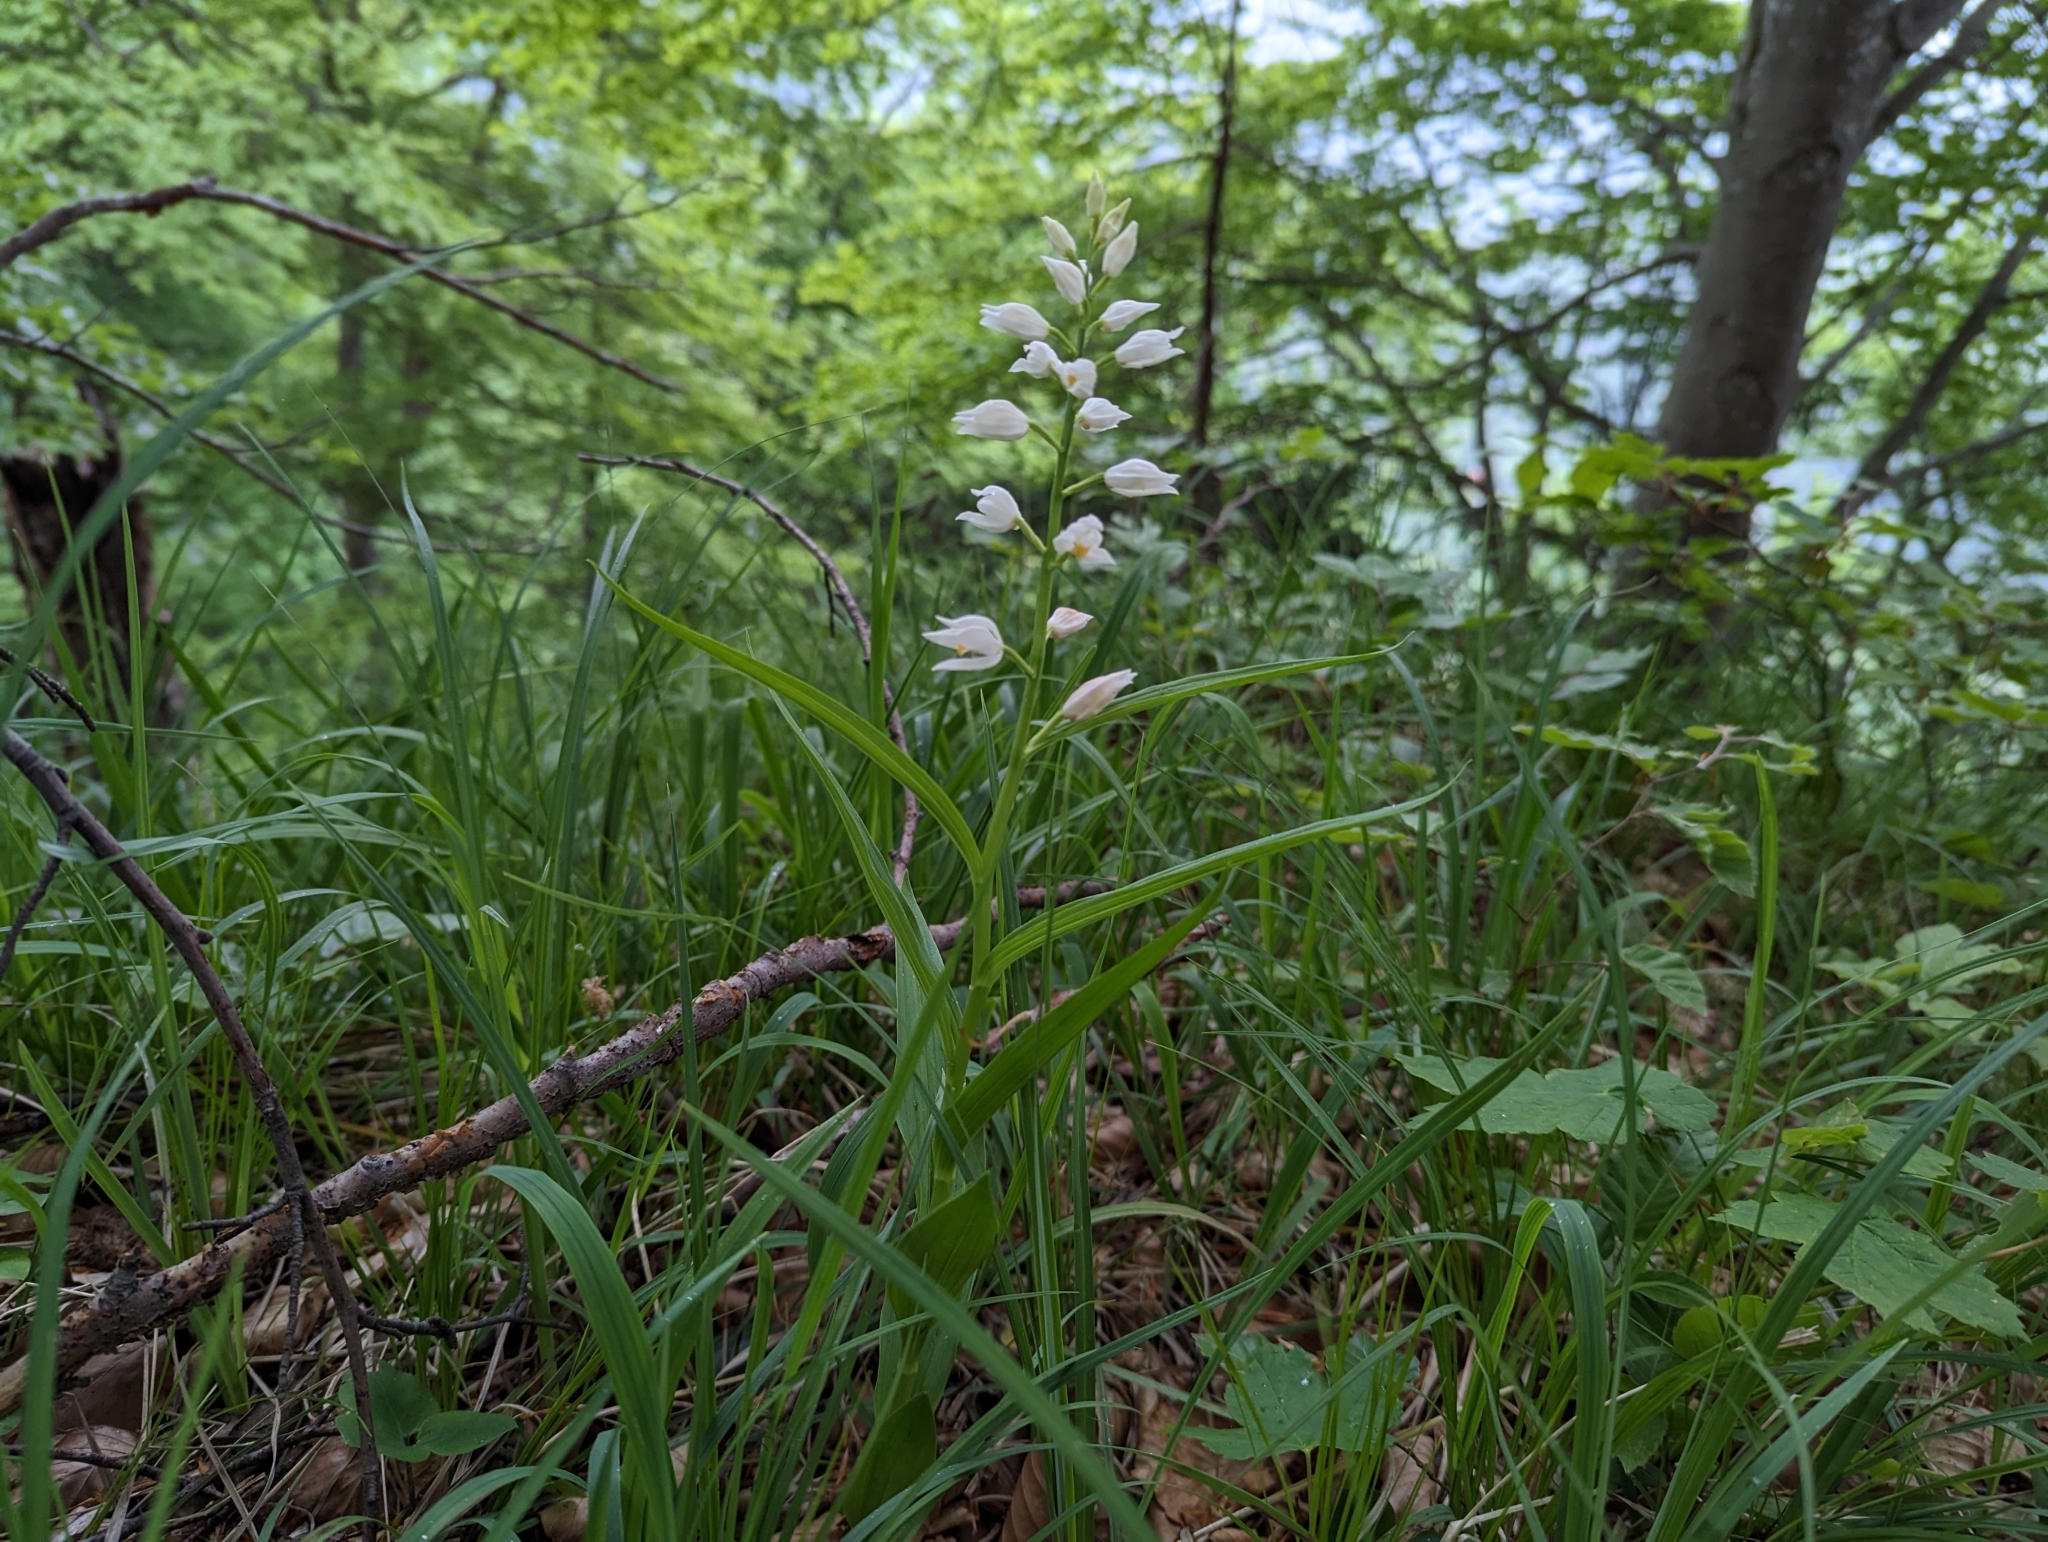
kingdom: Plantae
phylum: Tracheophyta
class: Liliopsida
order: Asparagales
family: Orchidaceae
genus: Cephalanthera
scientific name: Cephalanthera longifolia
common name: Narrow-leaved helleborine
